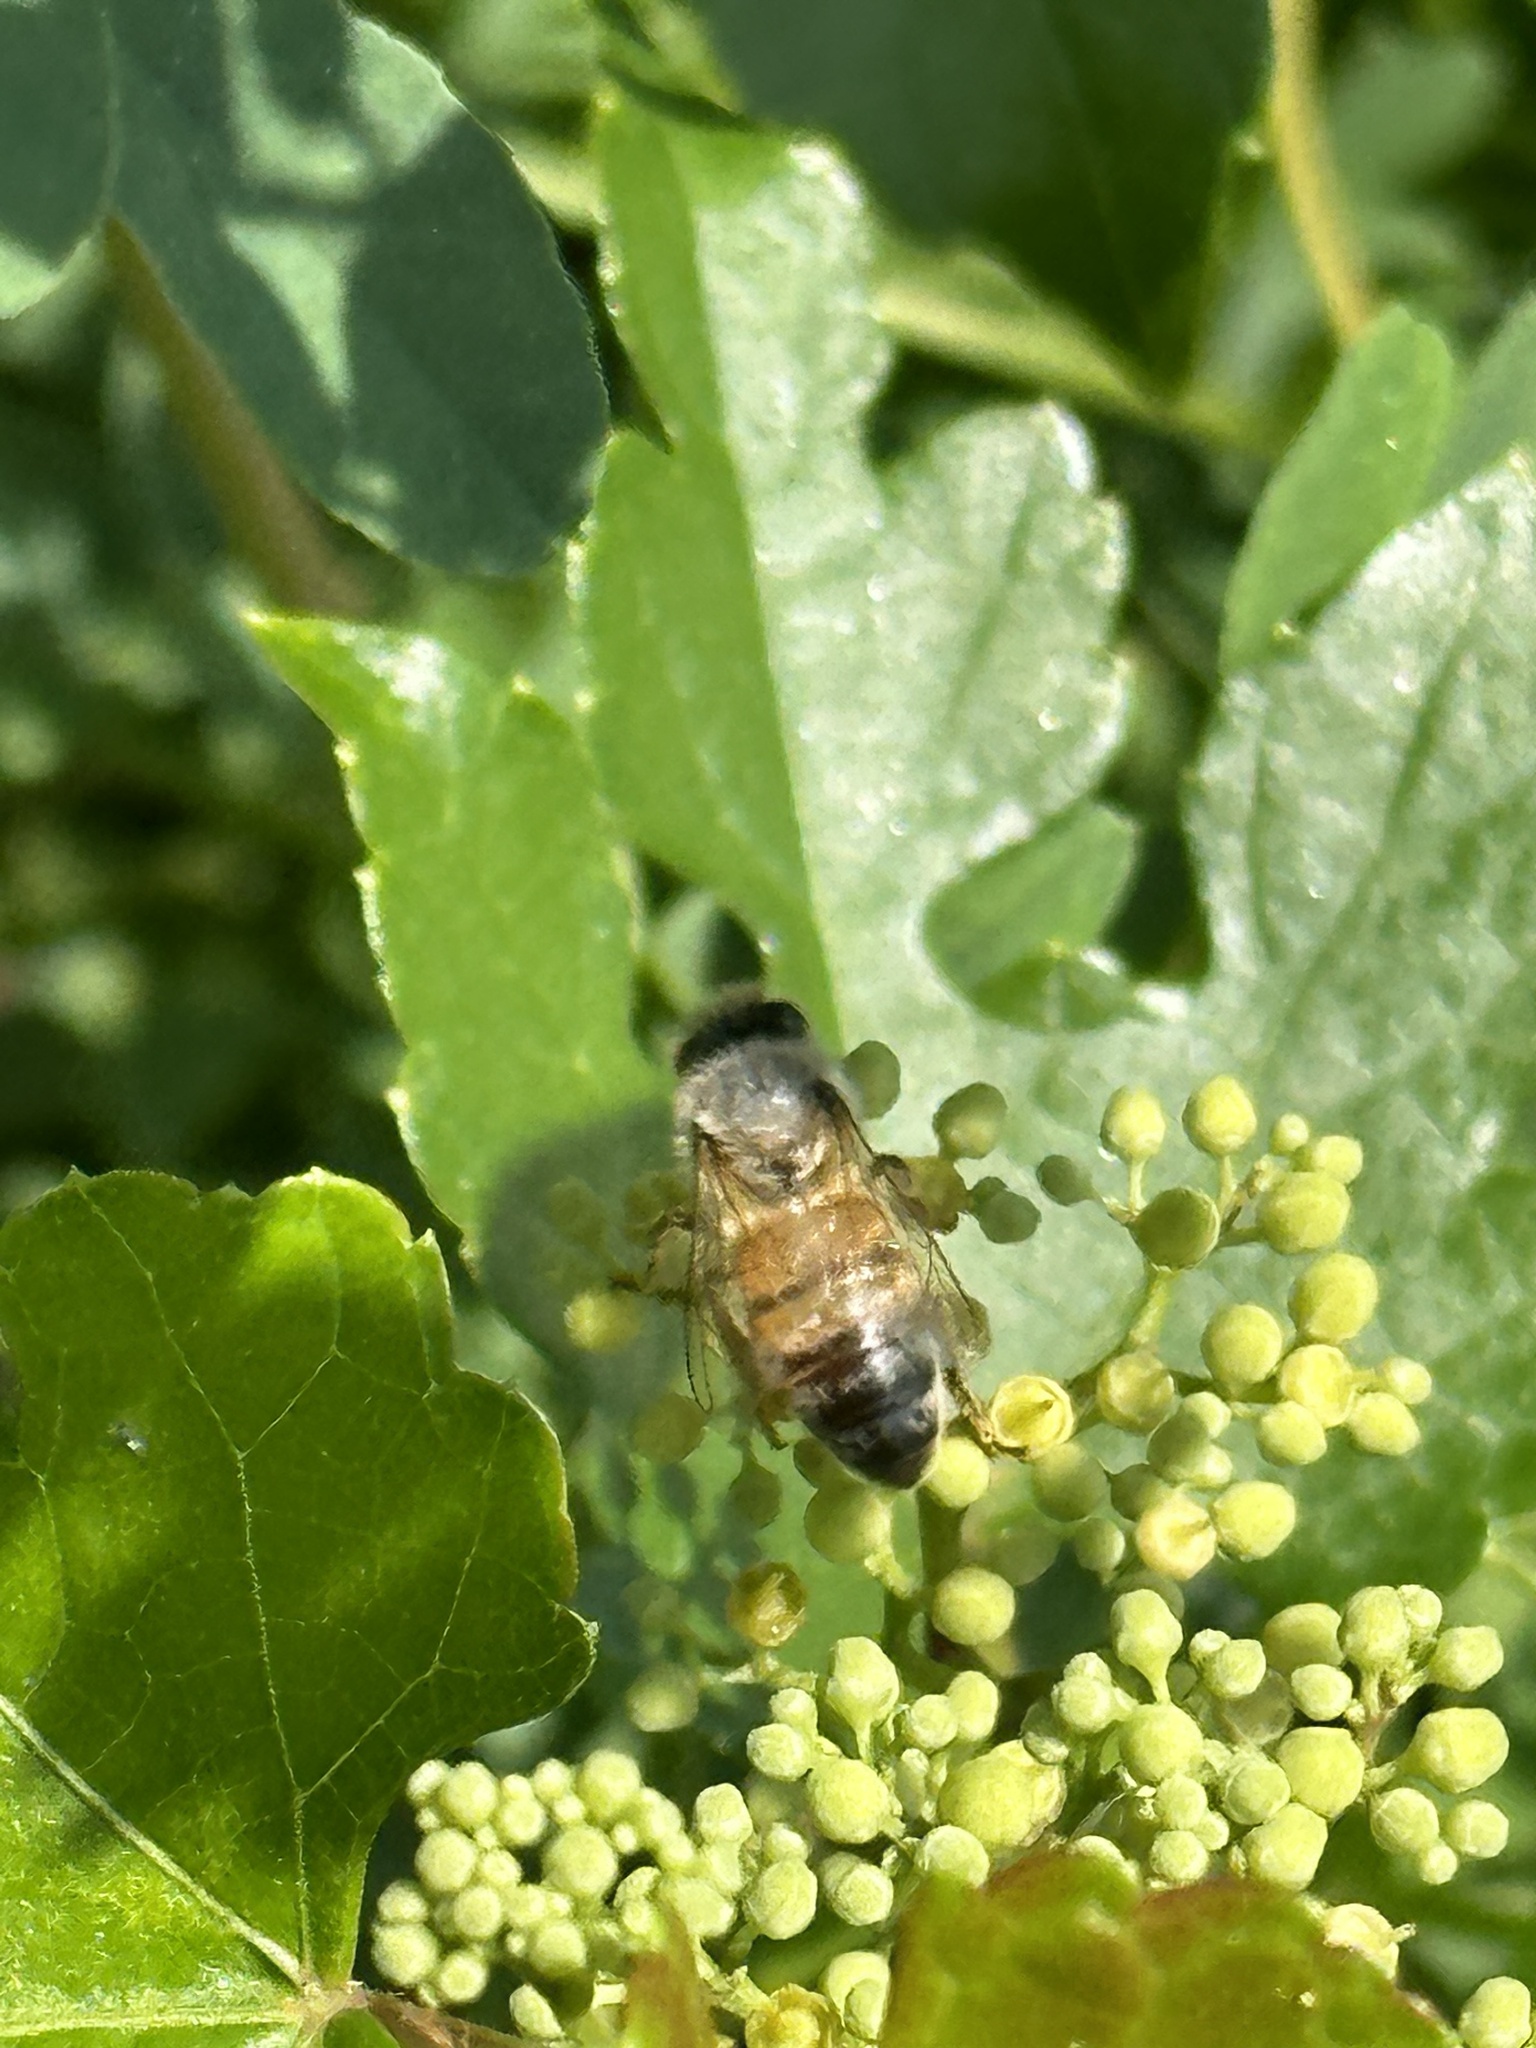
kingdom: Animalia
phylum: Arthropoda
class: Insecta
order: Hymenoptera
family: Apidae
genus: Apis
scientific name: Apis mellifera
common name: Honey bee
